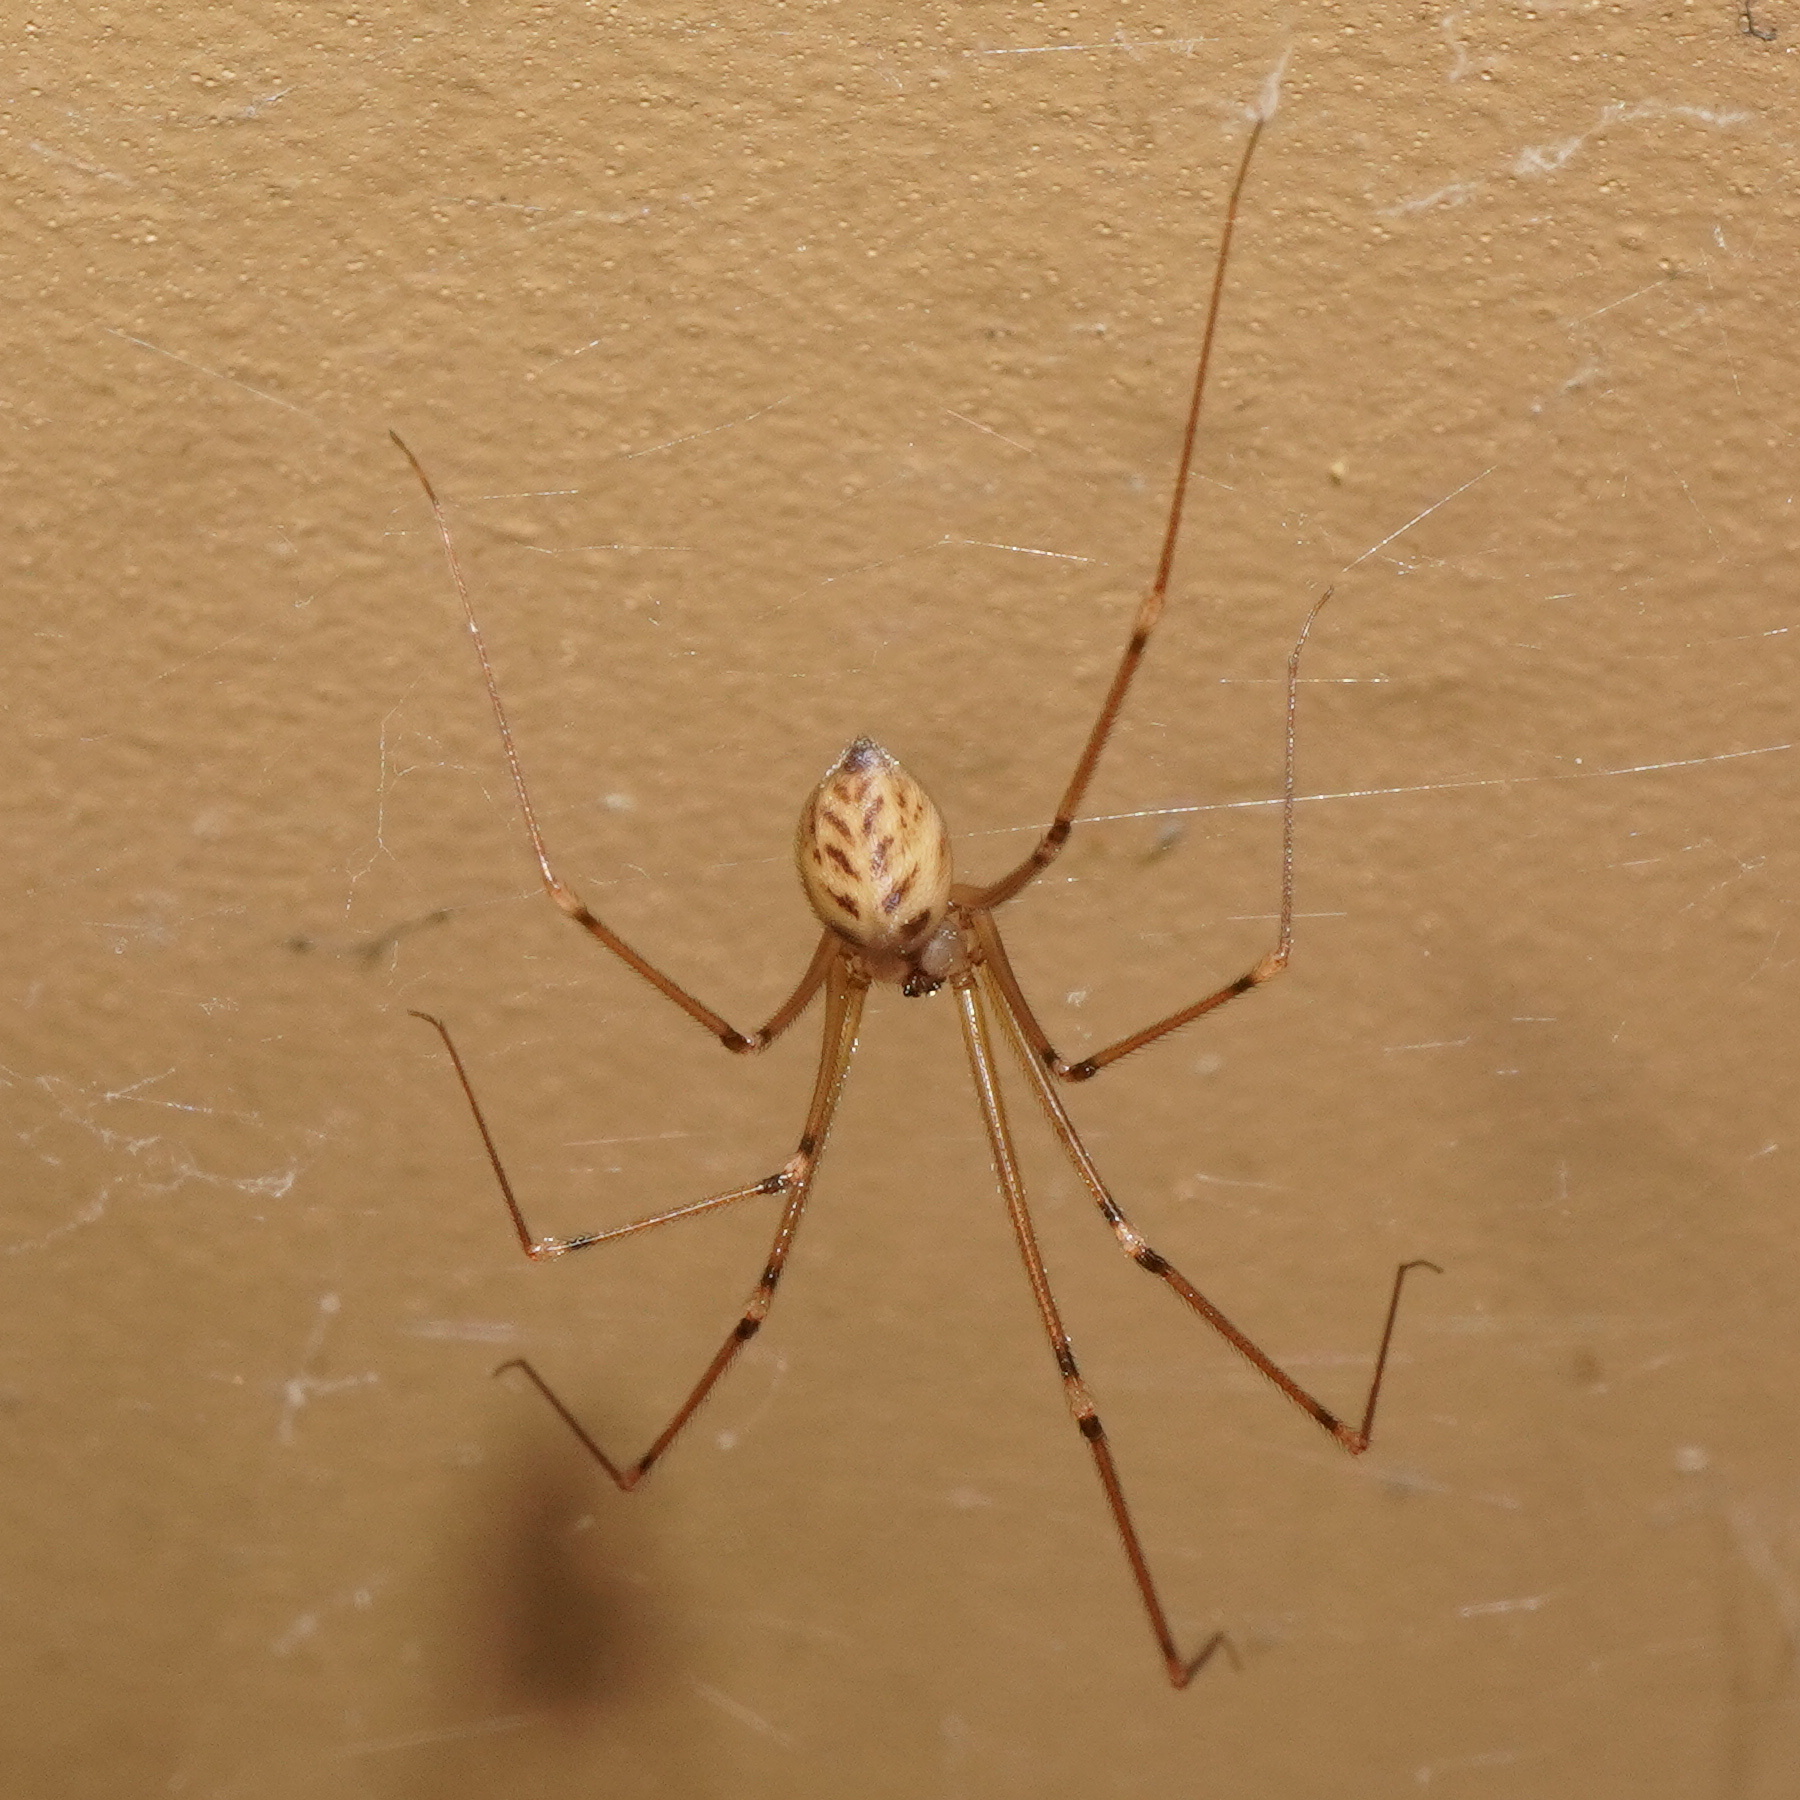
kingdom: Animalia
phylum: Arthropoda
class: Arachnida
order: Araneae
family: Pholcidae
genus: Hoplopholcus
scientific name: Hoplopholcus forskali
